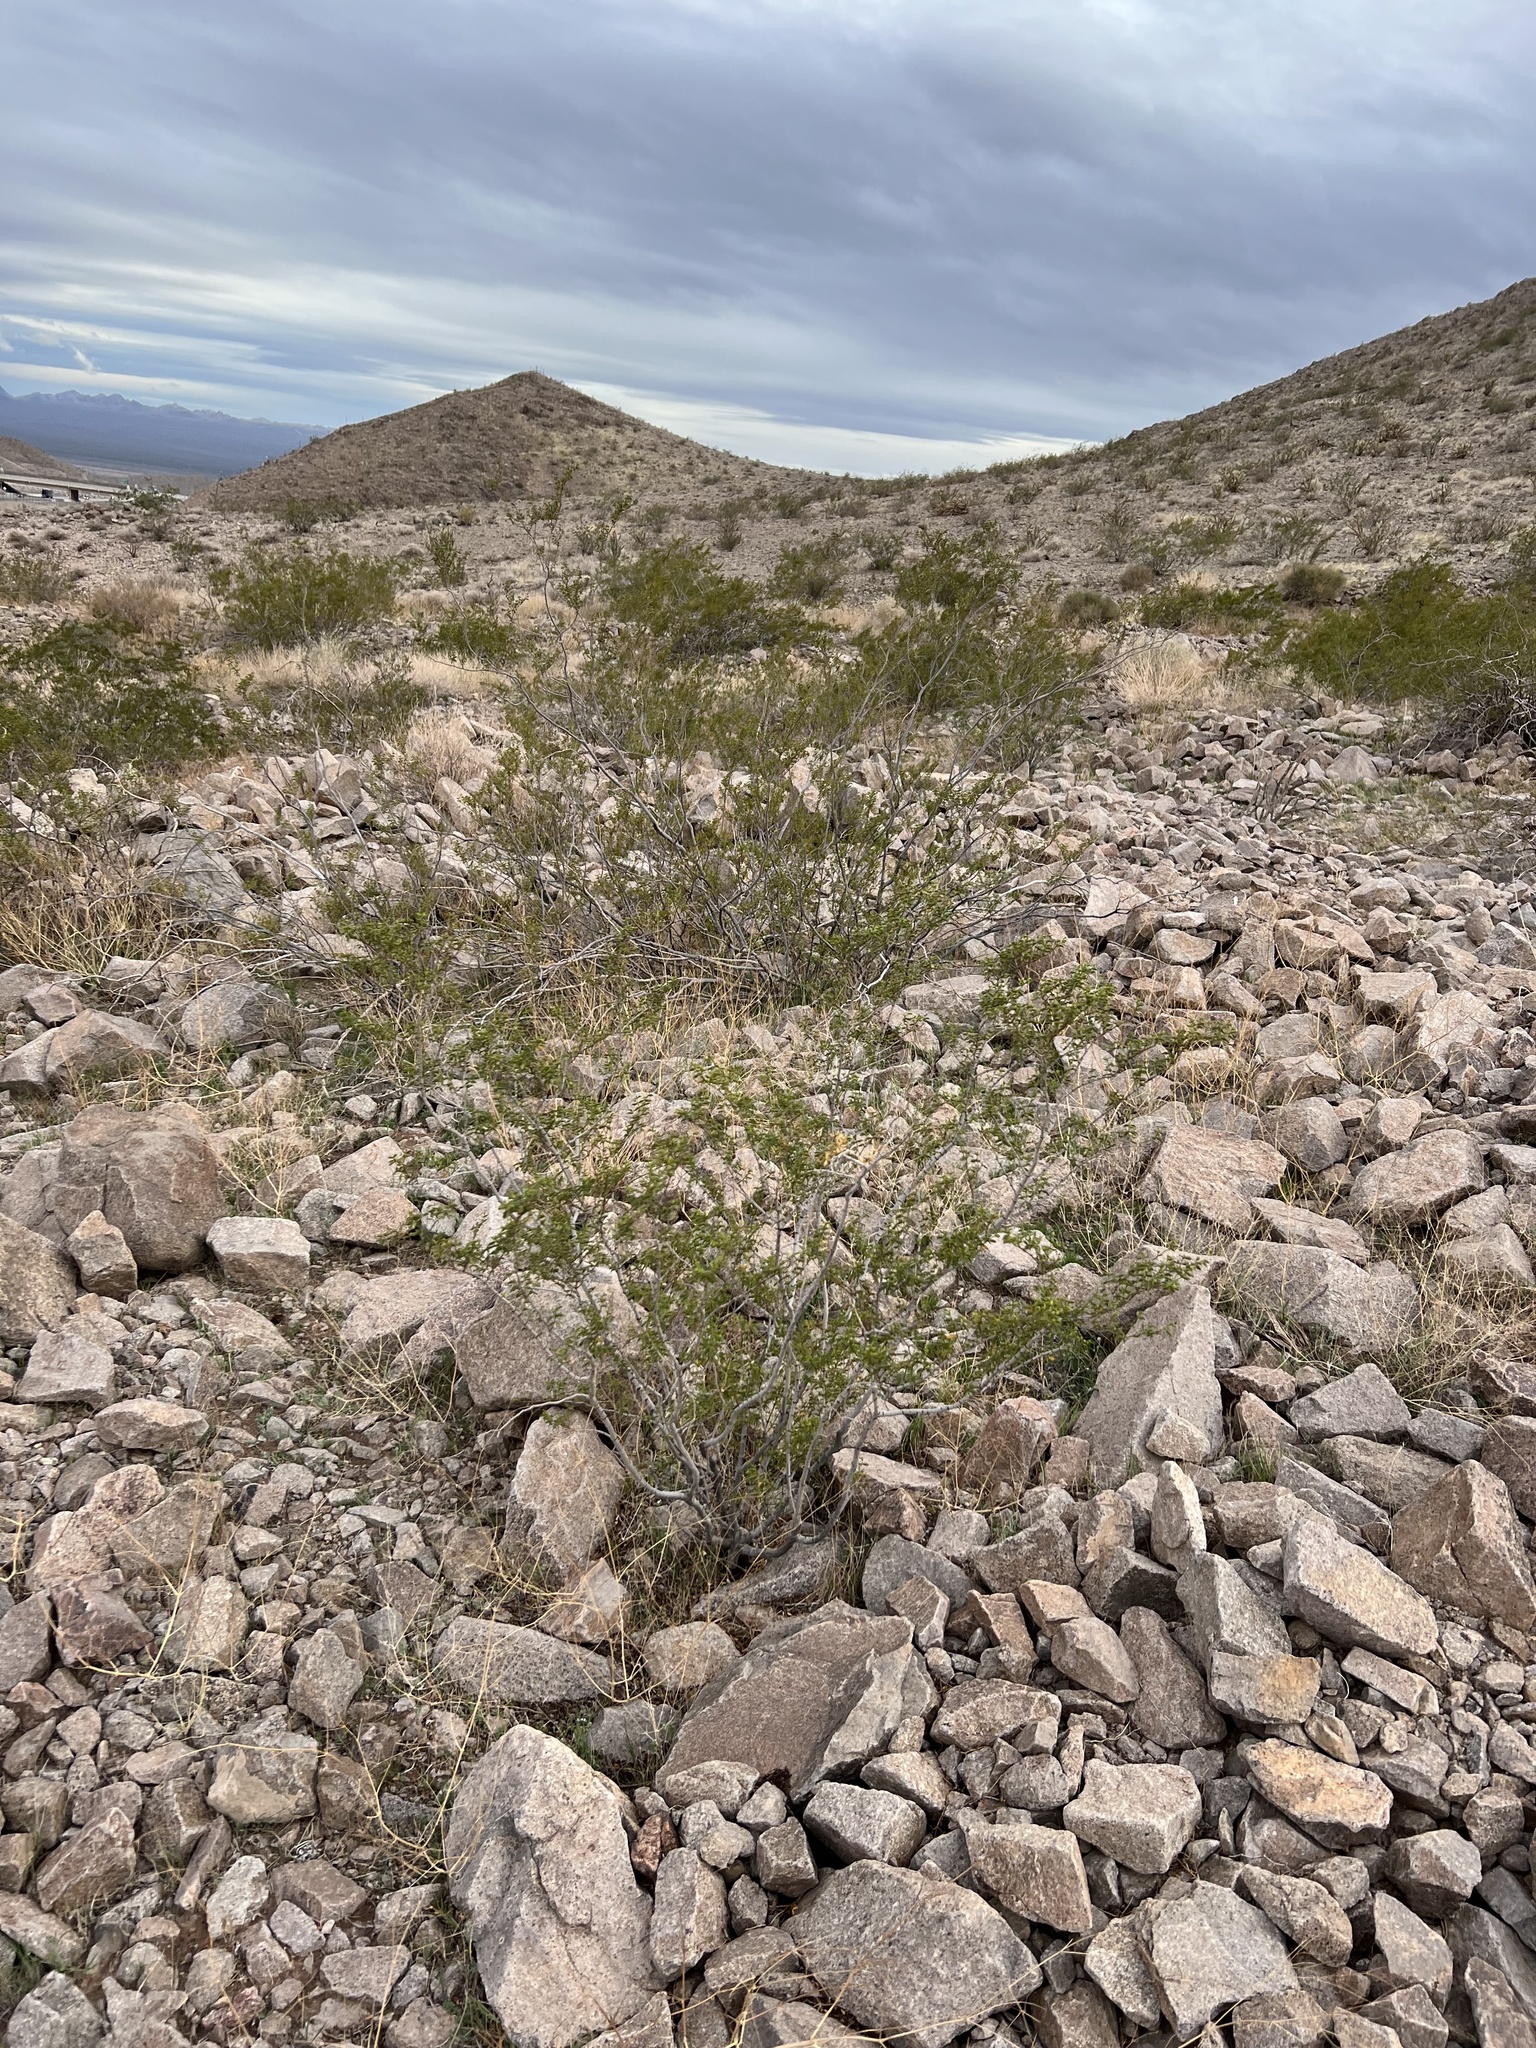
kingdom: Plantae
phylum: Tracheophyta
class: Magnoliopsida
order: Zygophyllales
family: Zygophyllaceae
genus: Larrea
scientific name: Larrea tridentata
